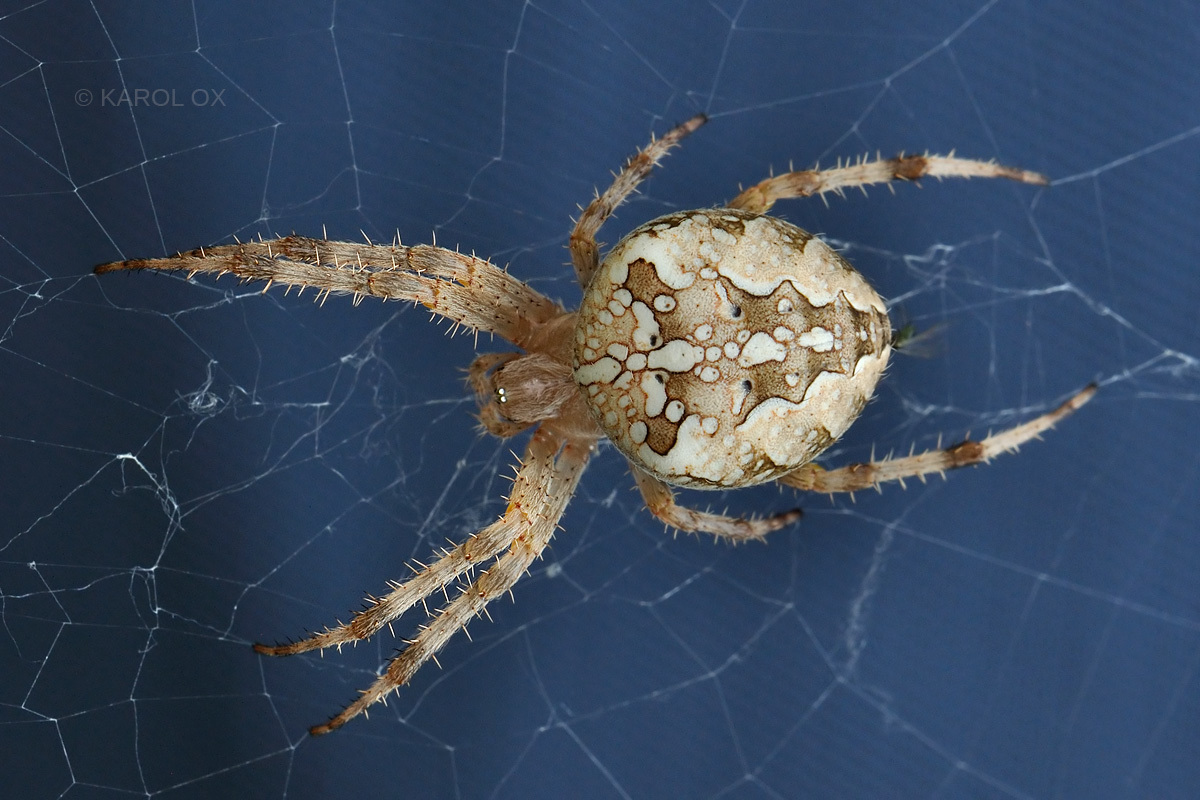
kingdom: Animalia
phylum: Arthropoda
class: Arachnida
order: Araneae
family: Araneidae
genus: Araneus
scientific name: Araneus diadematus
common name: Cross orbweaver
